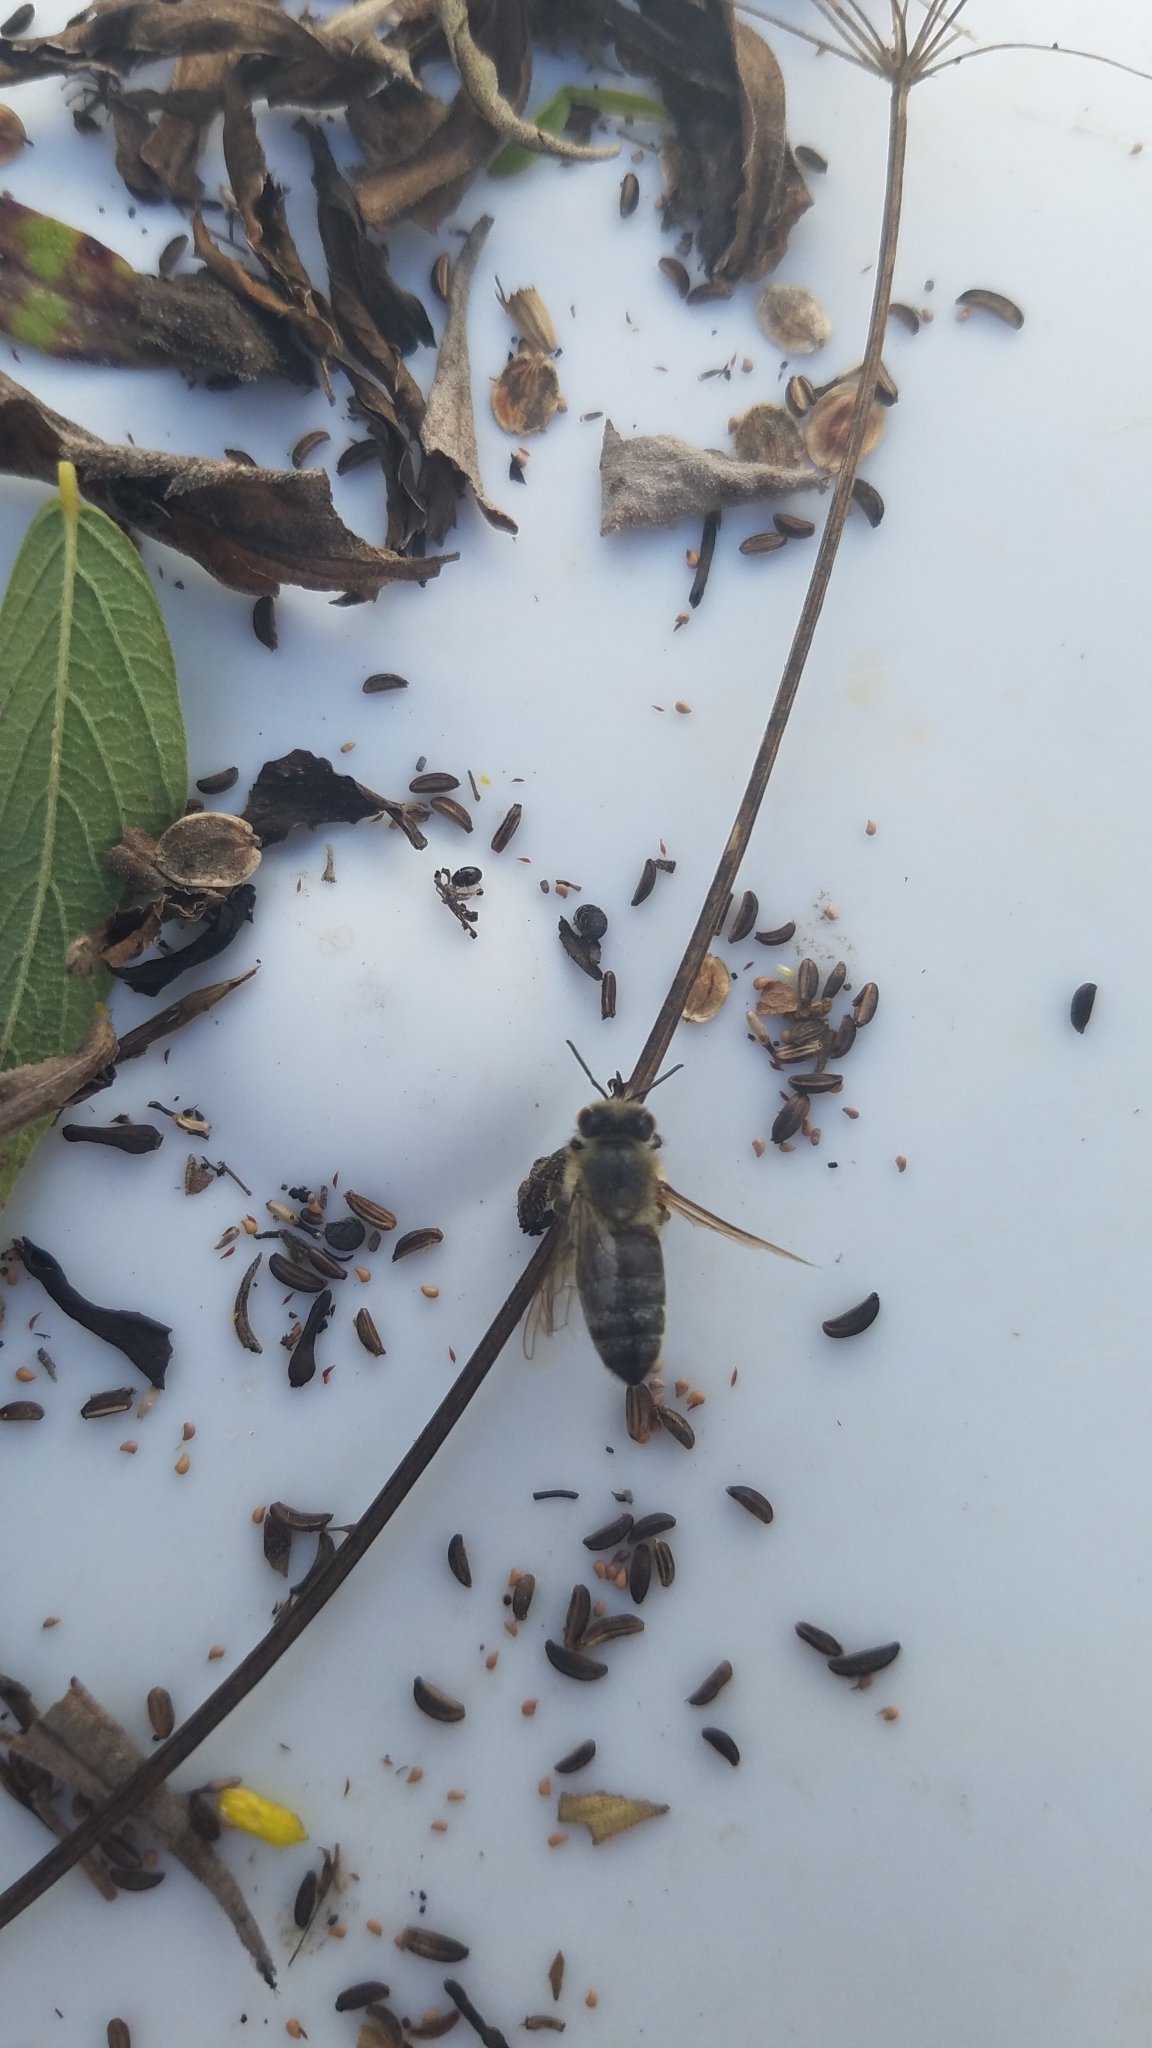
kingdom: Animalia
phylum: Arthropoda
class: Insecta
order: Hymenoptera
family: Apidae
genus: Apis
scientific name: Apis mellifera
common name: Honey bee
